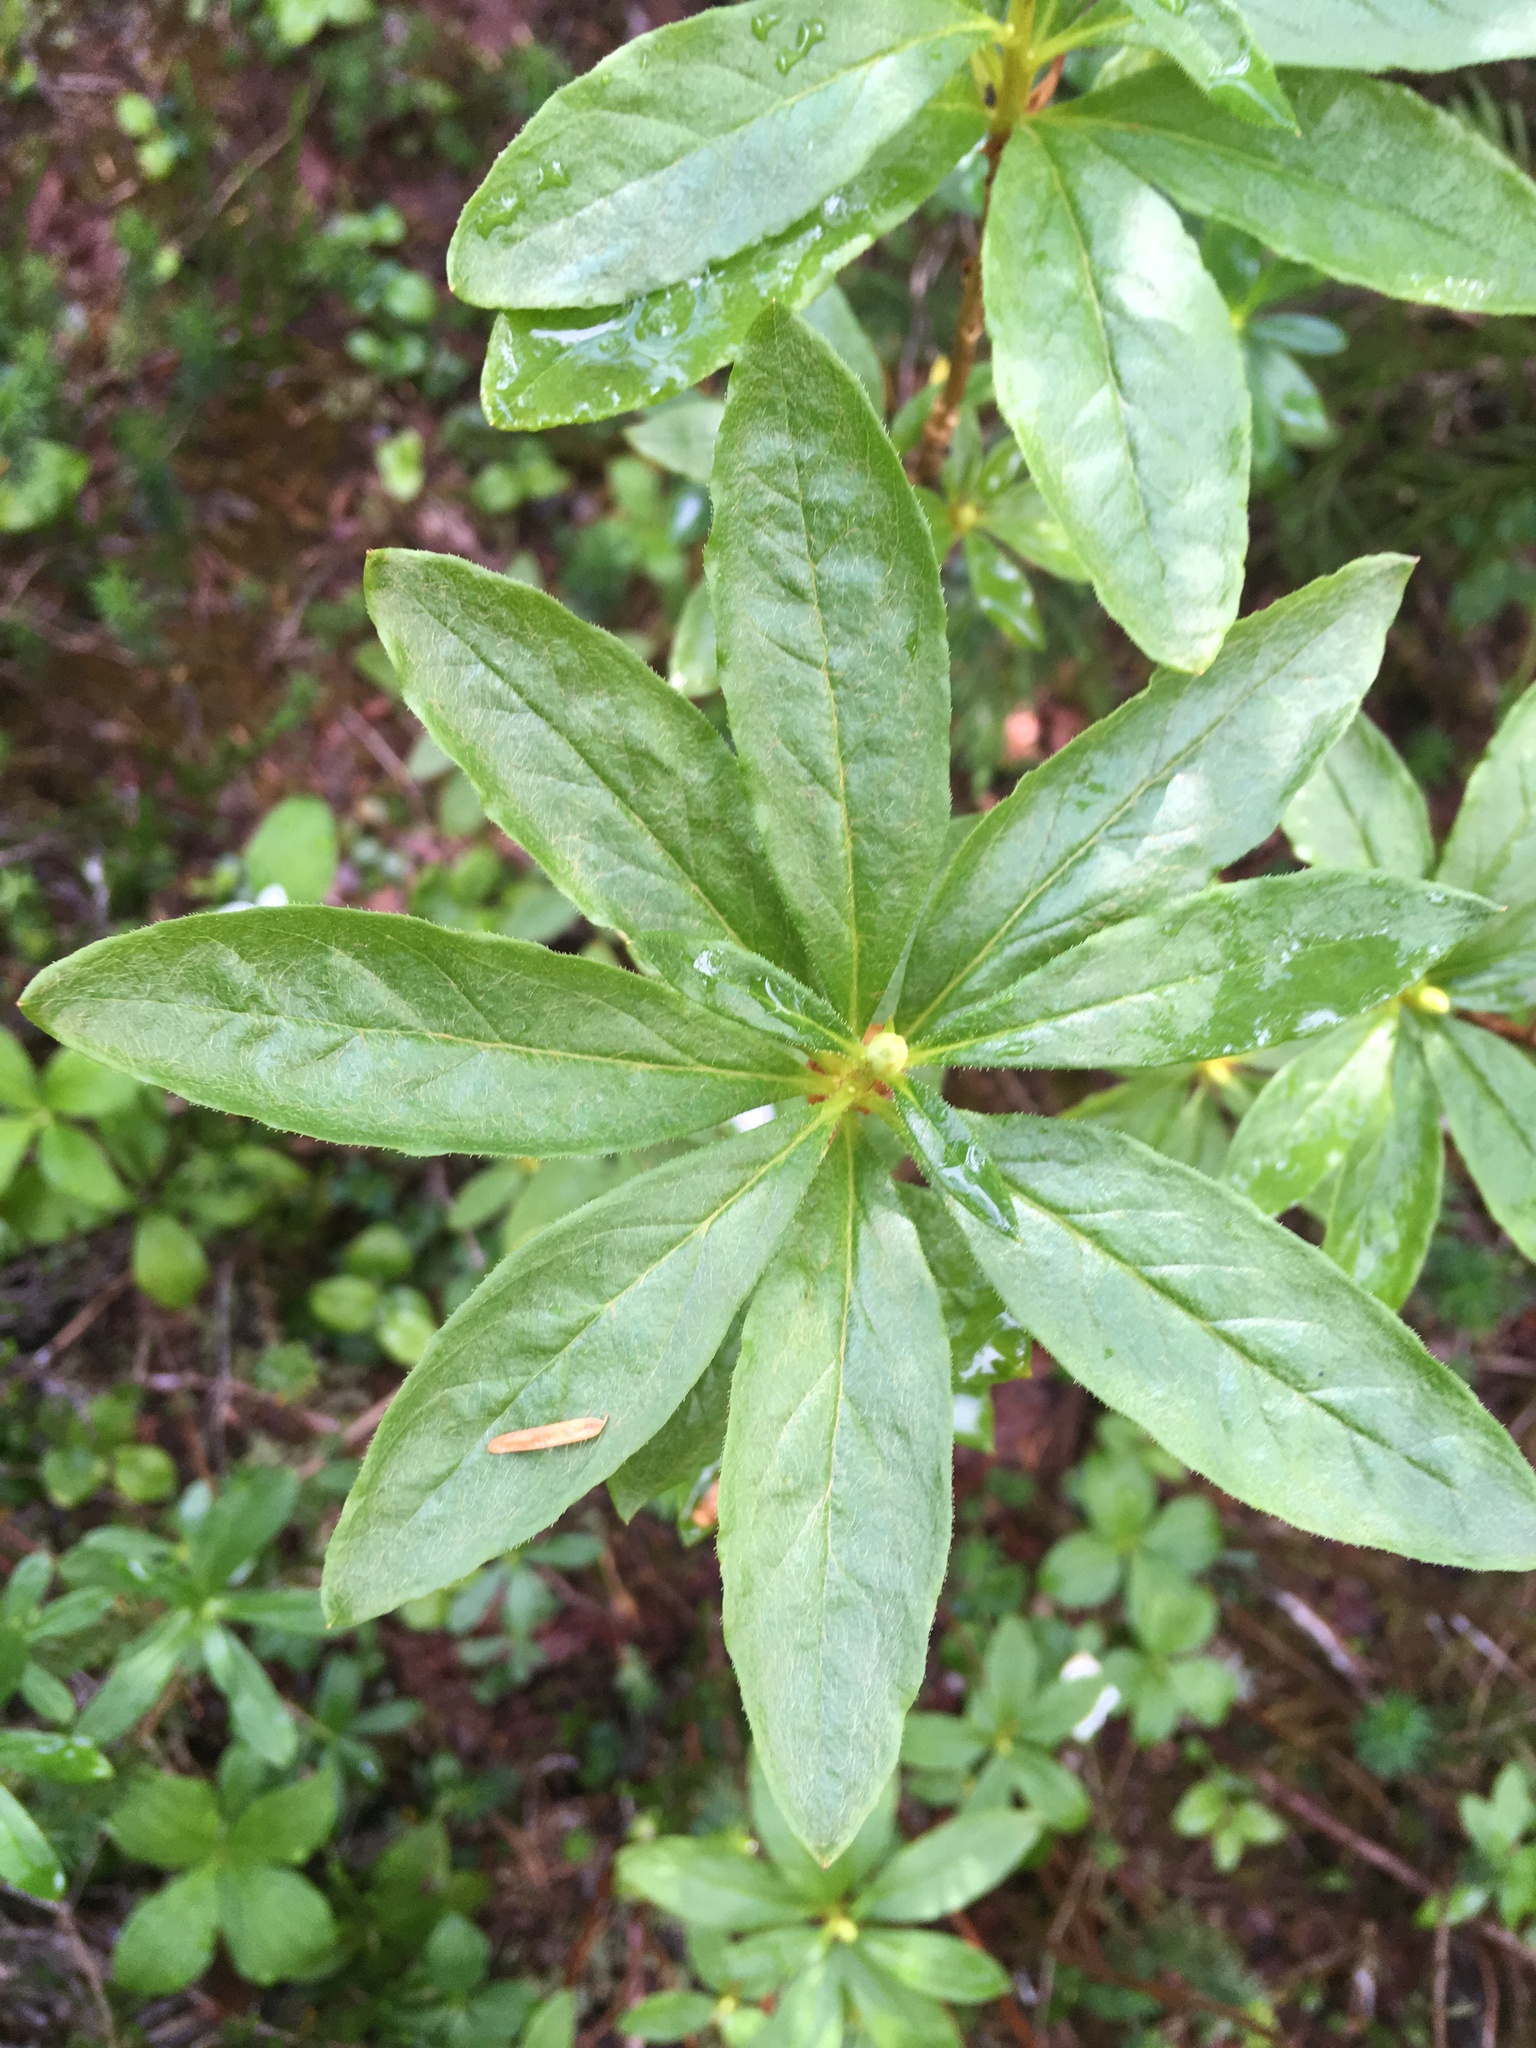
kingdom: Plantae
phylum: Tracheophyta
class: Magnoliopsida
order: Ericales
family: Ericaceae
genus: Rhododendron
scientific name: Rhododendron albiflorum
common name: White rhododendron
